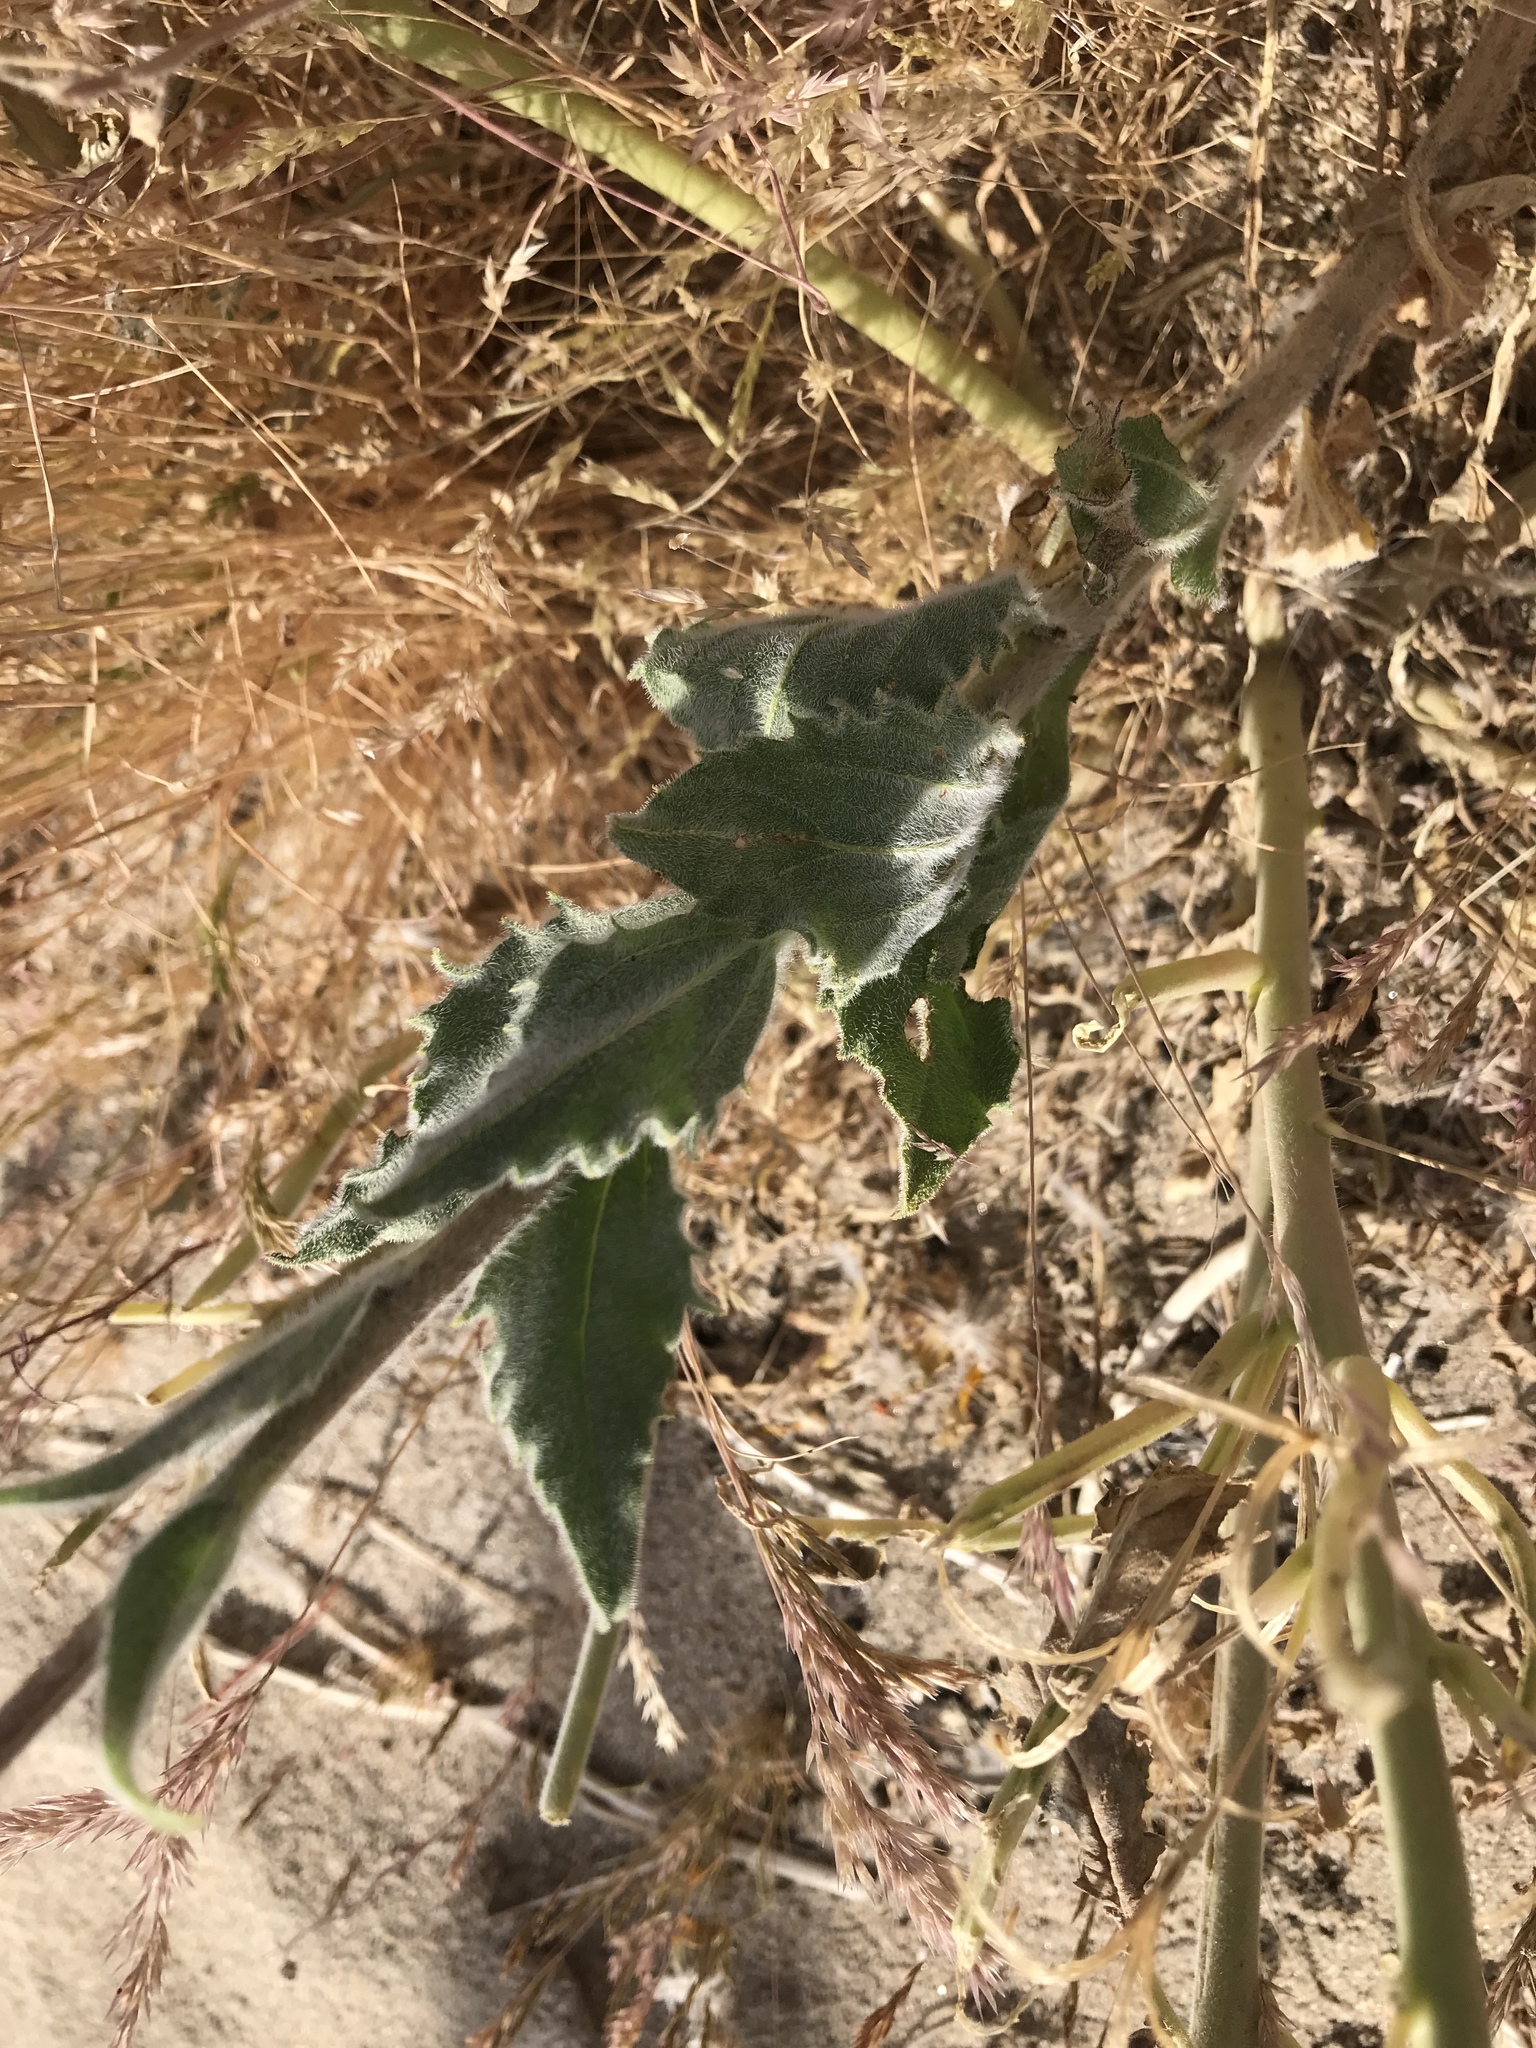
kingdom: Plantae
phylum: Tracheophyta
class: Magnoliopsida
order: Asterales
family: Asteraceae
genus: Geraea
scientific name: Geraea canescens
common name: Desert-gold
